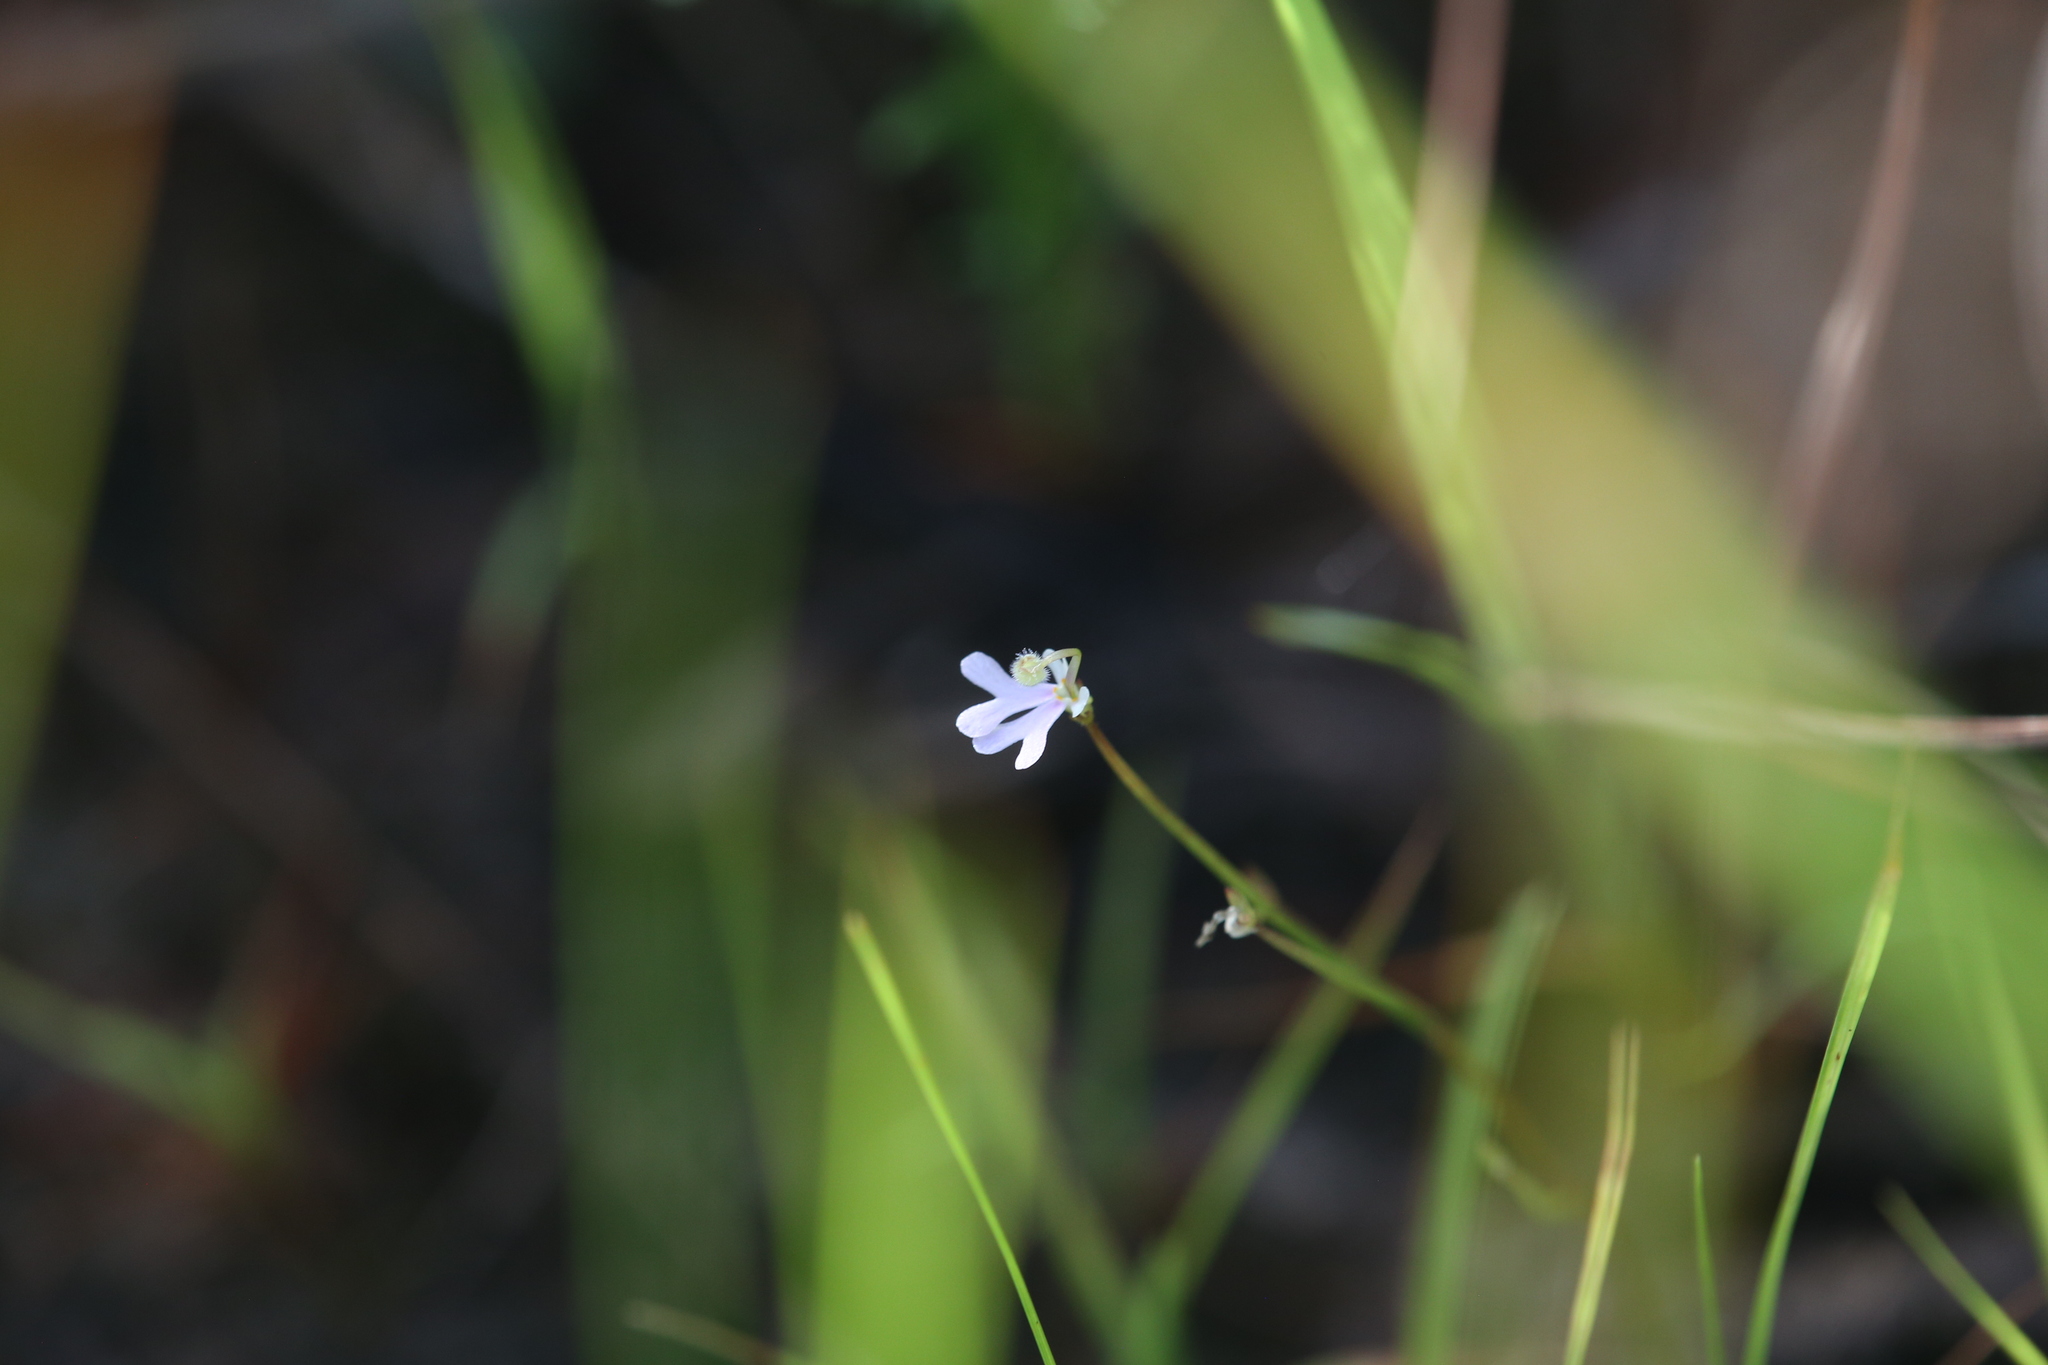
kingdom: Plantae
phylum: Tracheophyta
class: Magnoliopsida
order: Asterales
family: Stylidiaceae
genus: Stylidium
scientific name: Stylidium capillare
